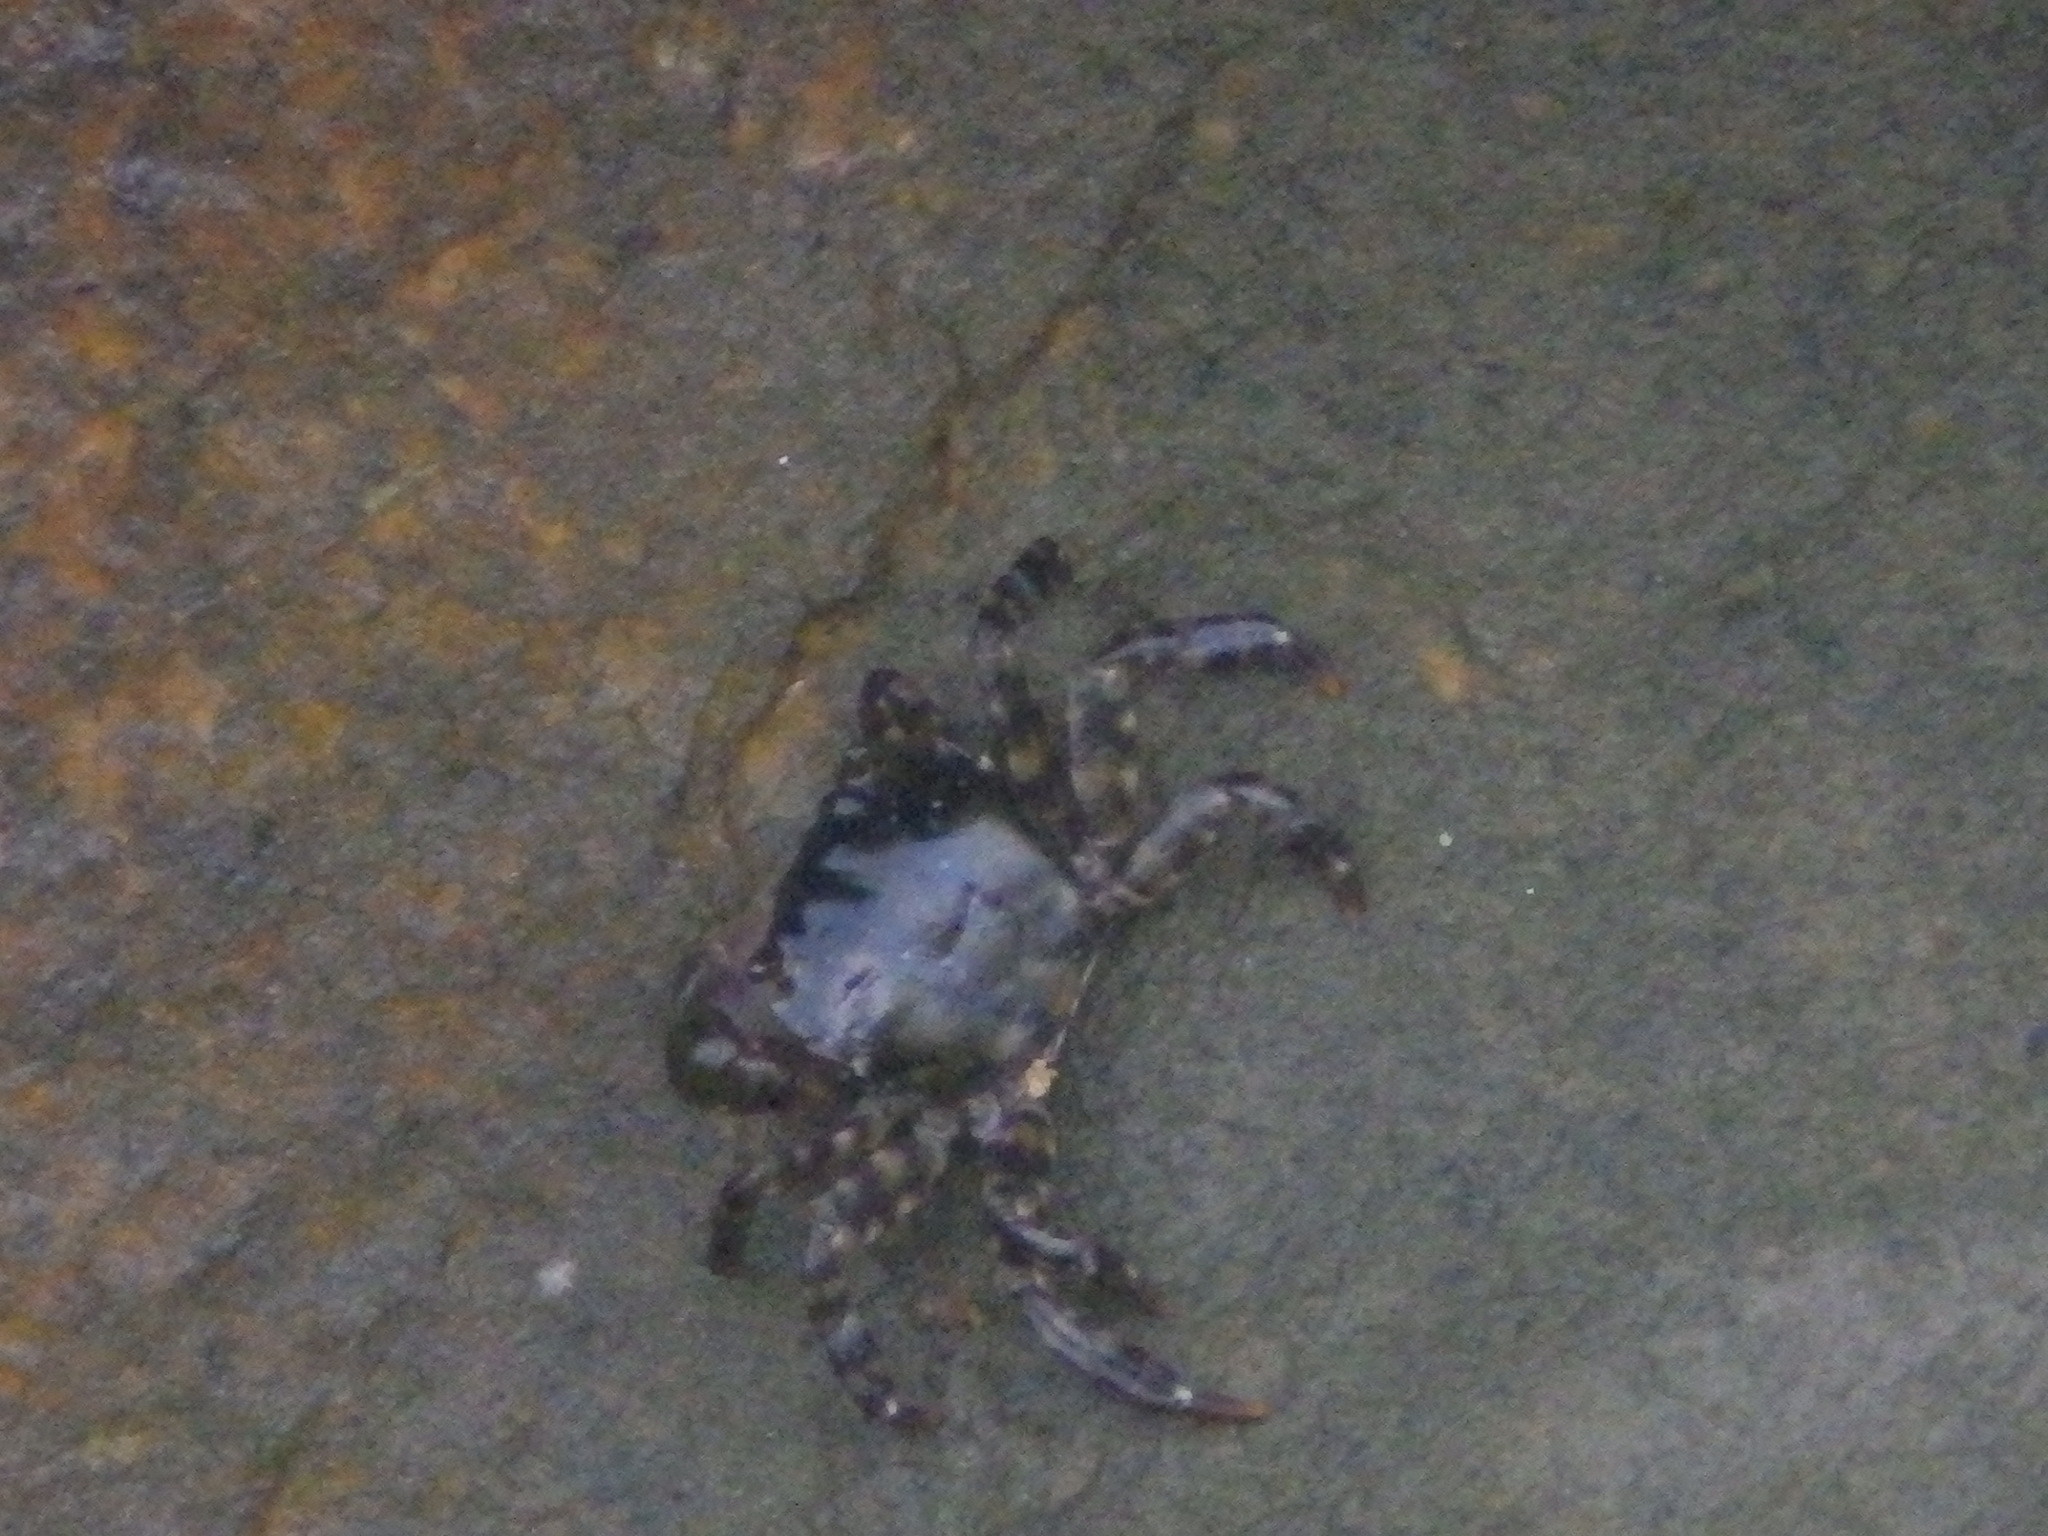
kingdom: Animalia
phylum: Arthropoda
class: Malacostraca
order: Decapoda
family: Varunidae
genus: Hemigrapsus
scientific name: Hemigrapsus sanguineus
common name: Asian shore crab
